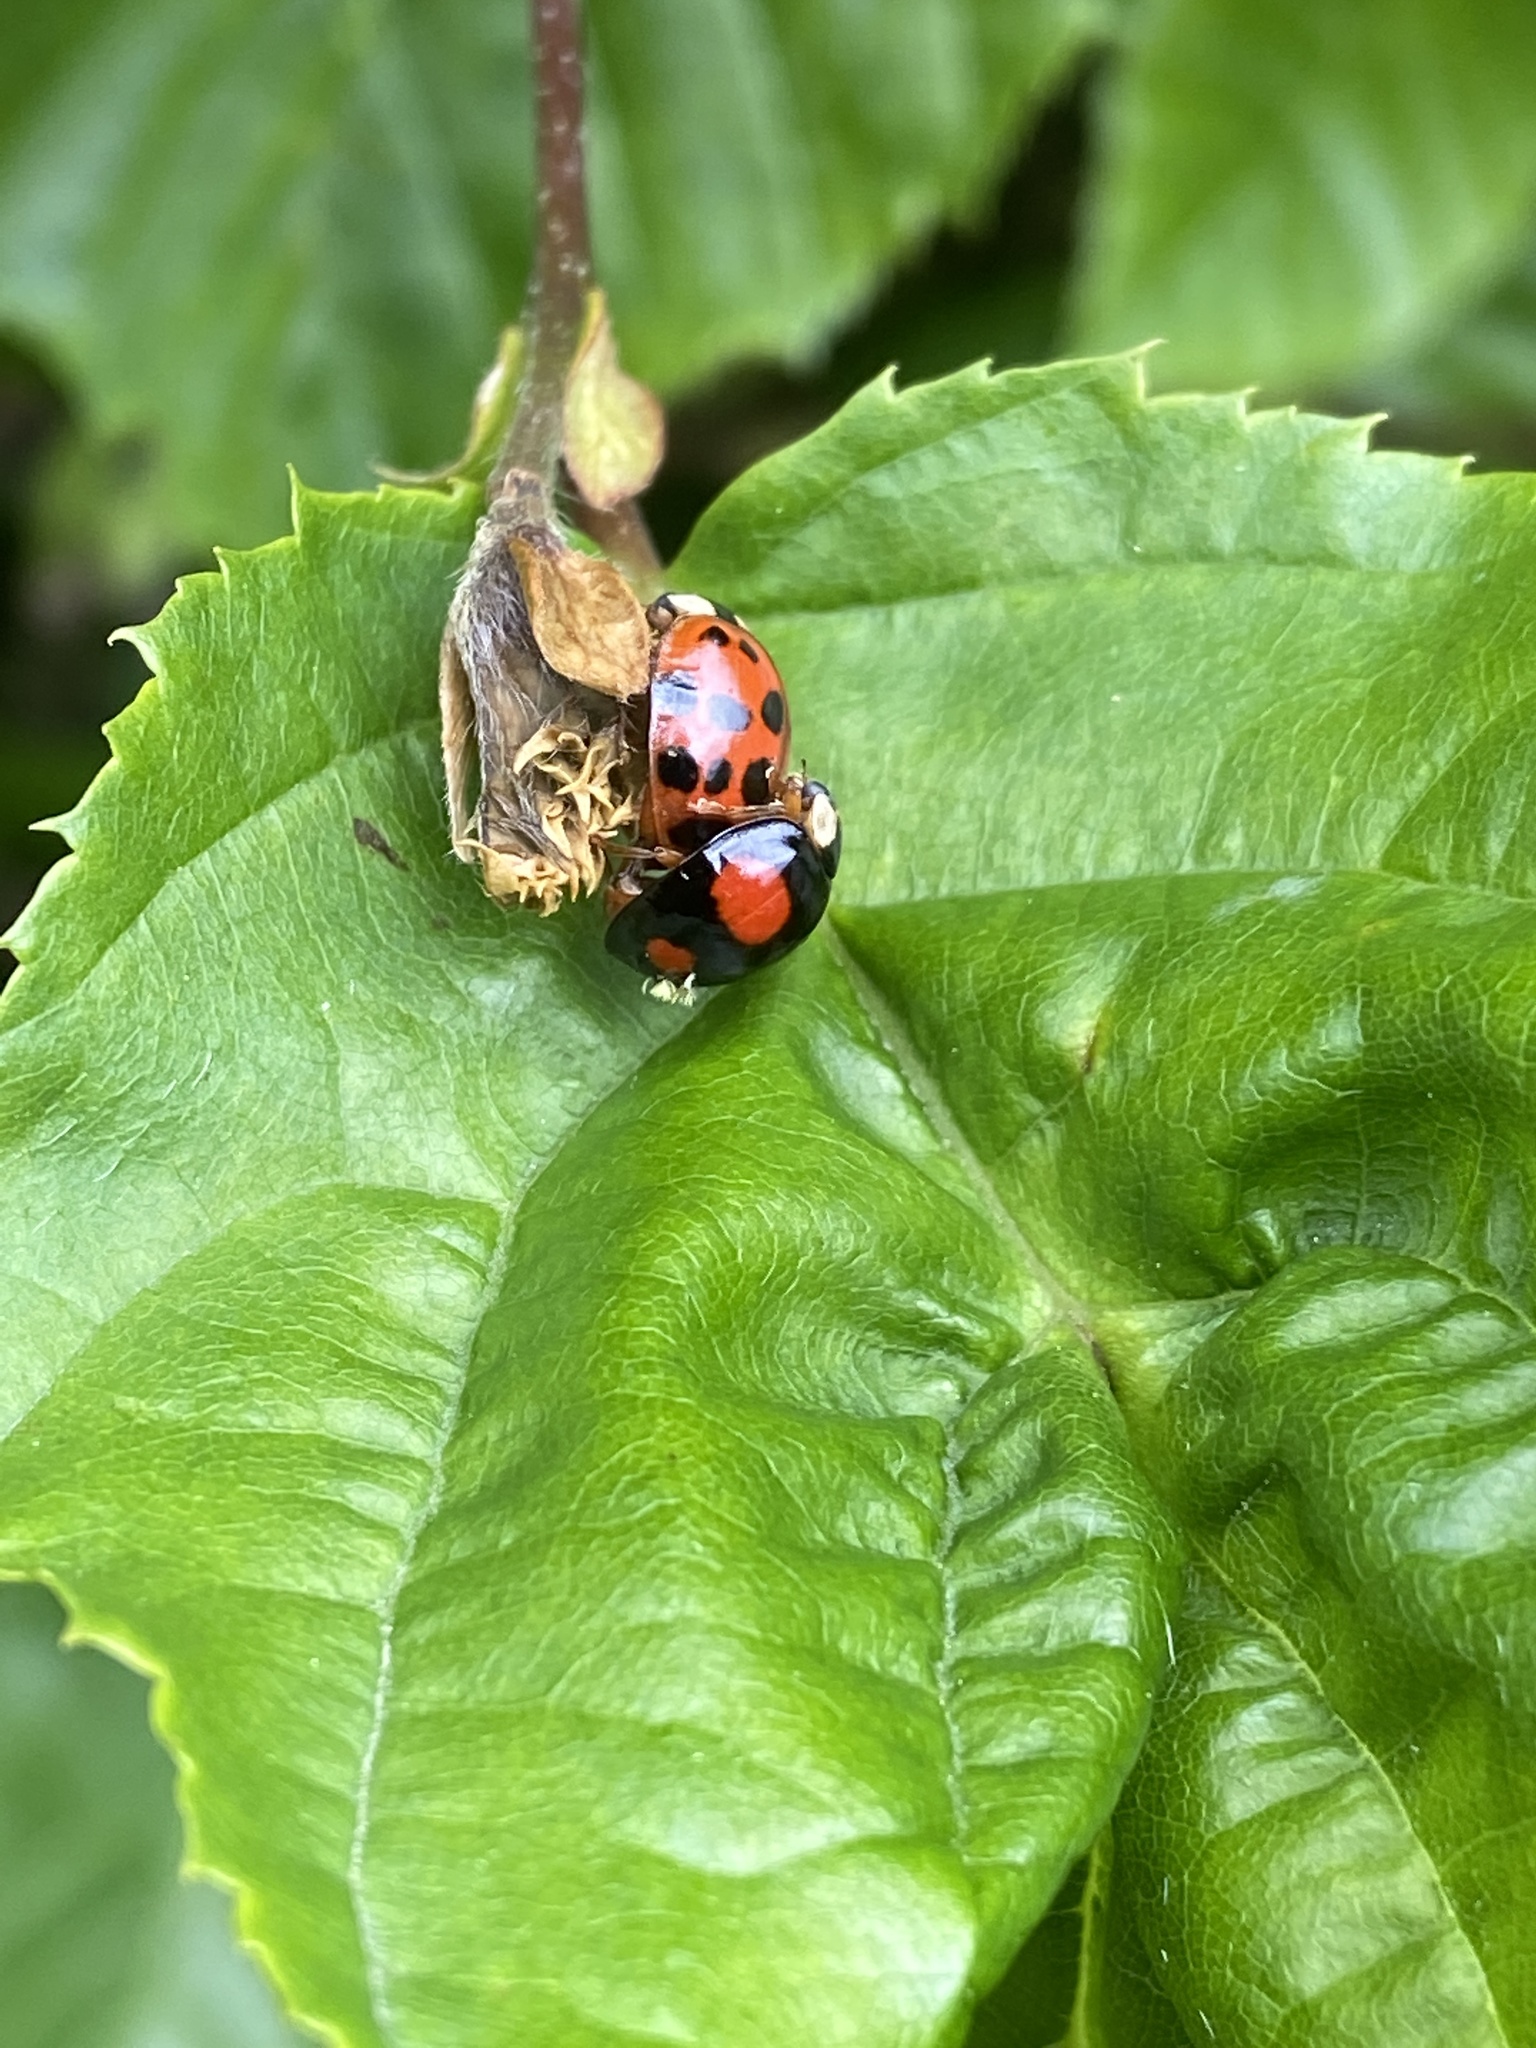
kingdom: Animalia
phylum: Arthropoda
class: Insecta
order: Coleoptera
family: Coccinellidae
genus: Harmonia
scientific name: Harmonia axyridis
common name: Harlequin ladybird
